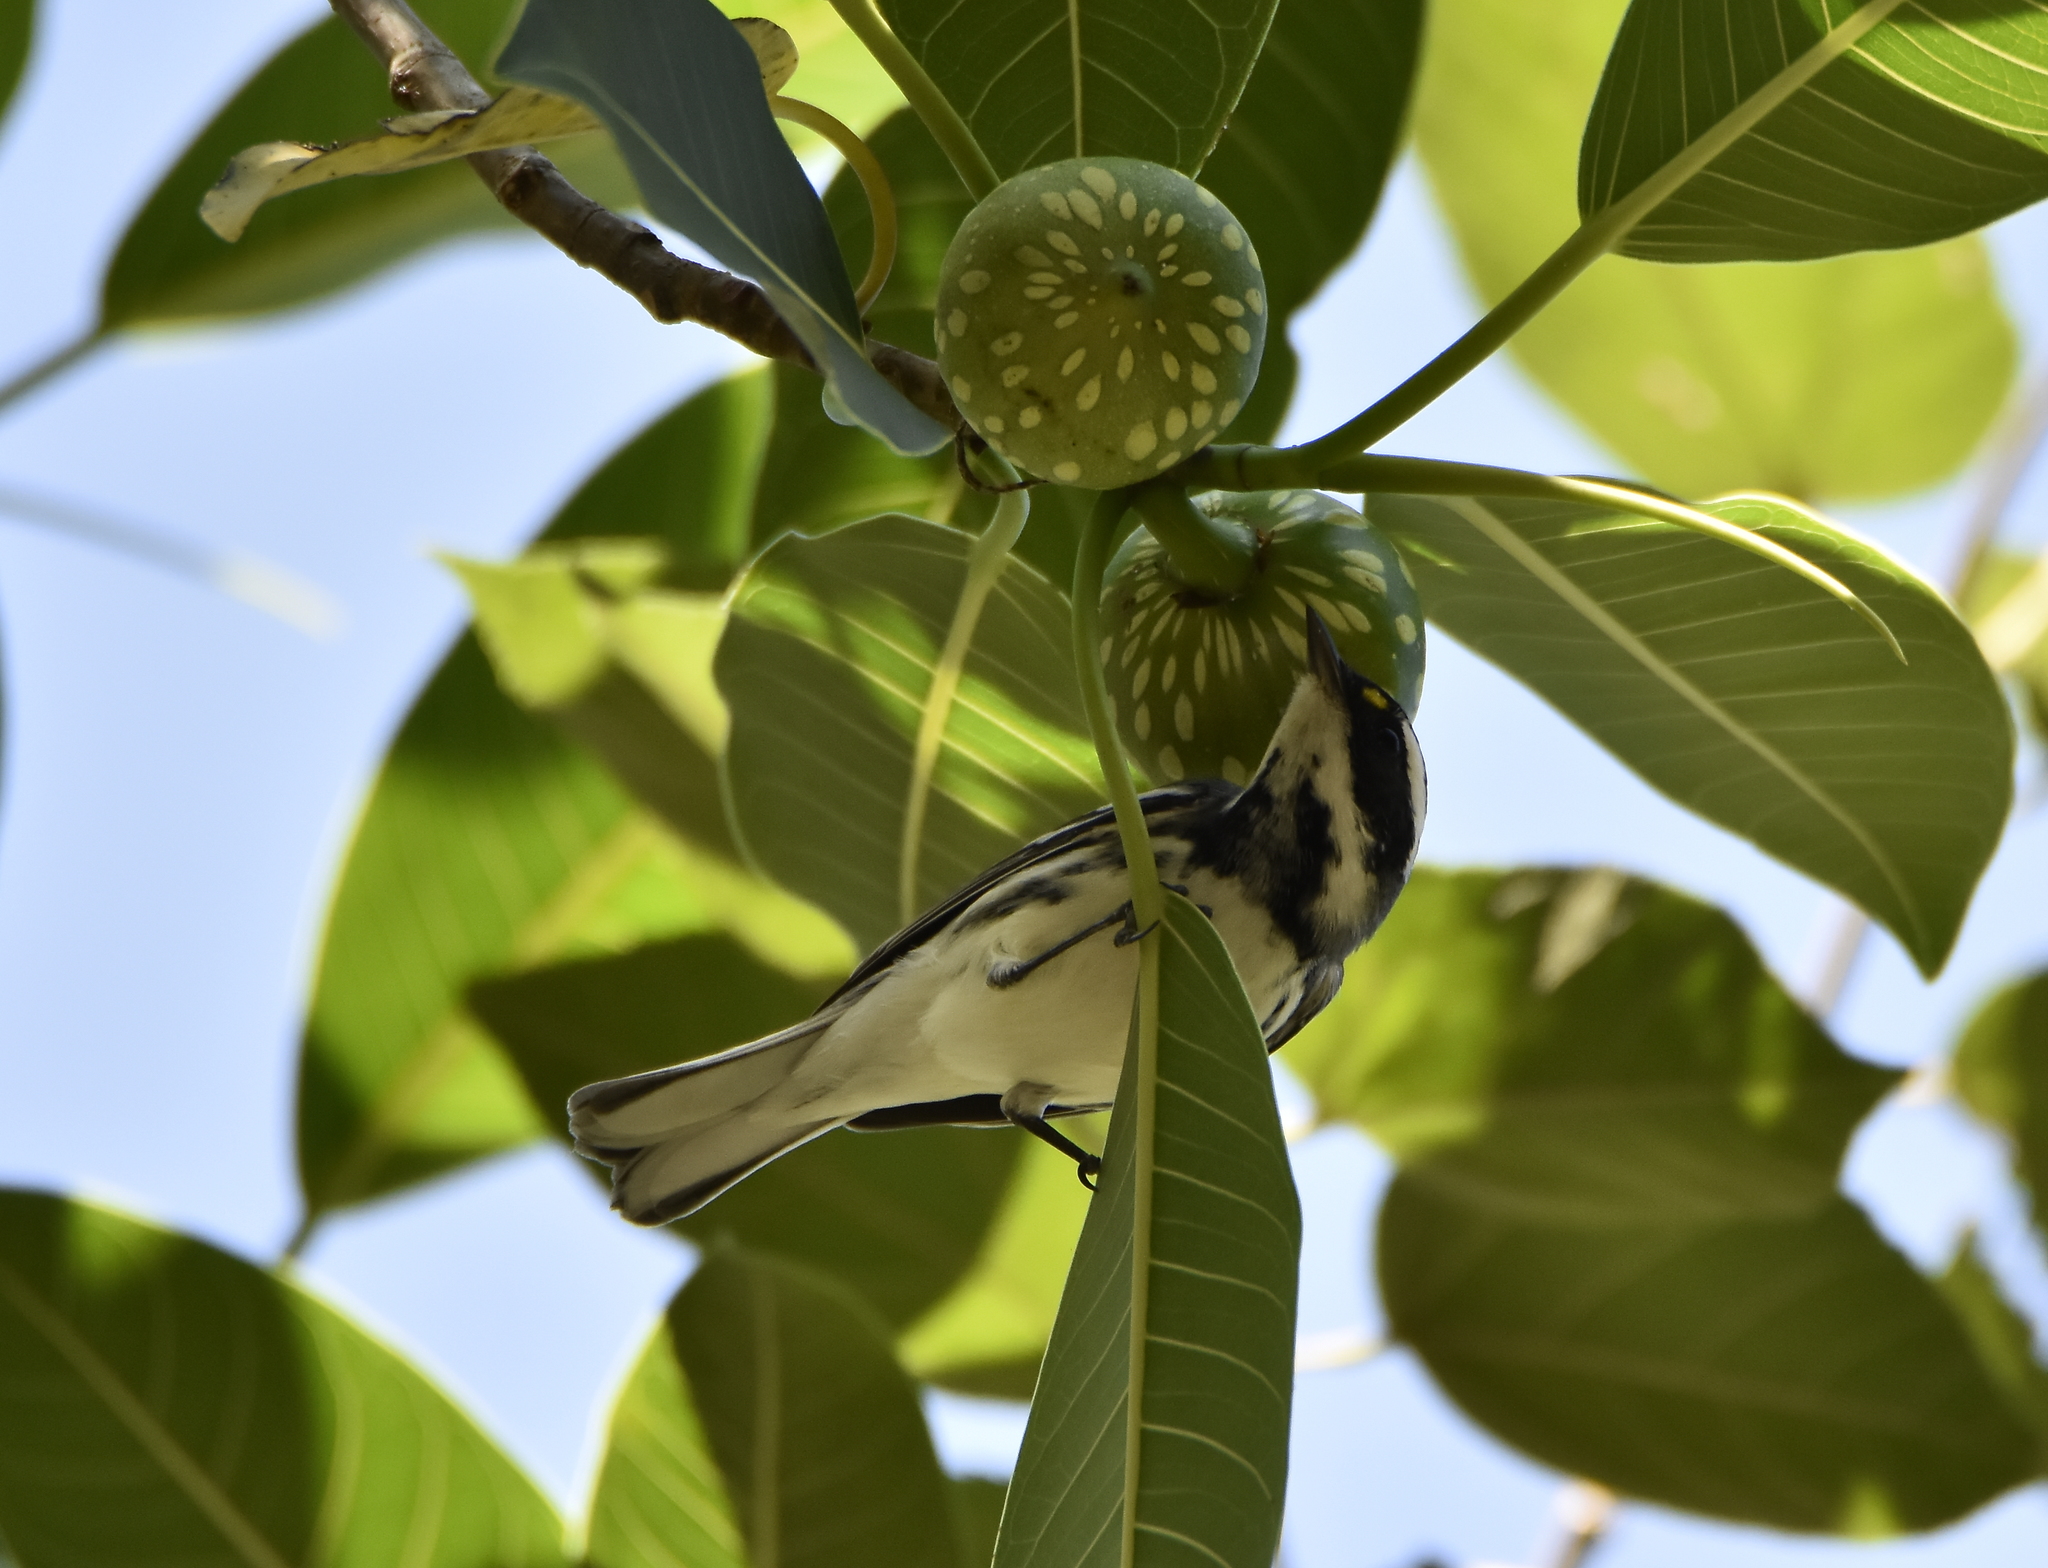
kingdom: Animalia
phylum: Chordata
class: Aves
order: Passeriformes
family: Parulidae
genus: Setophaga
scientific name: Setophaga nigrescens
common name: Black-throated gray warbler
